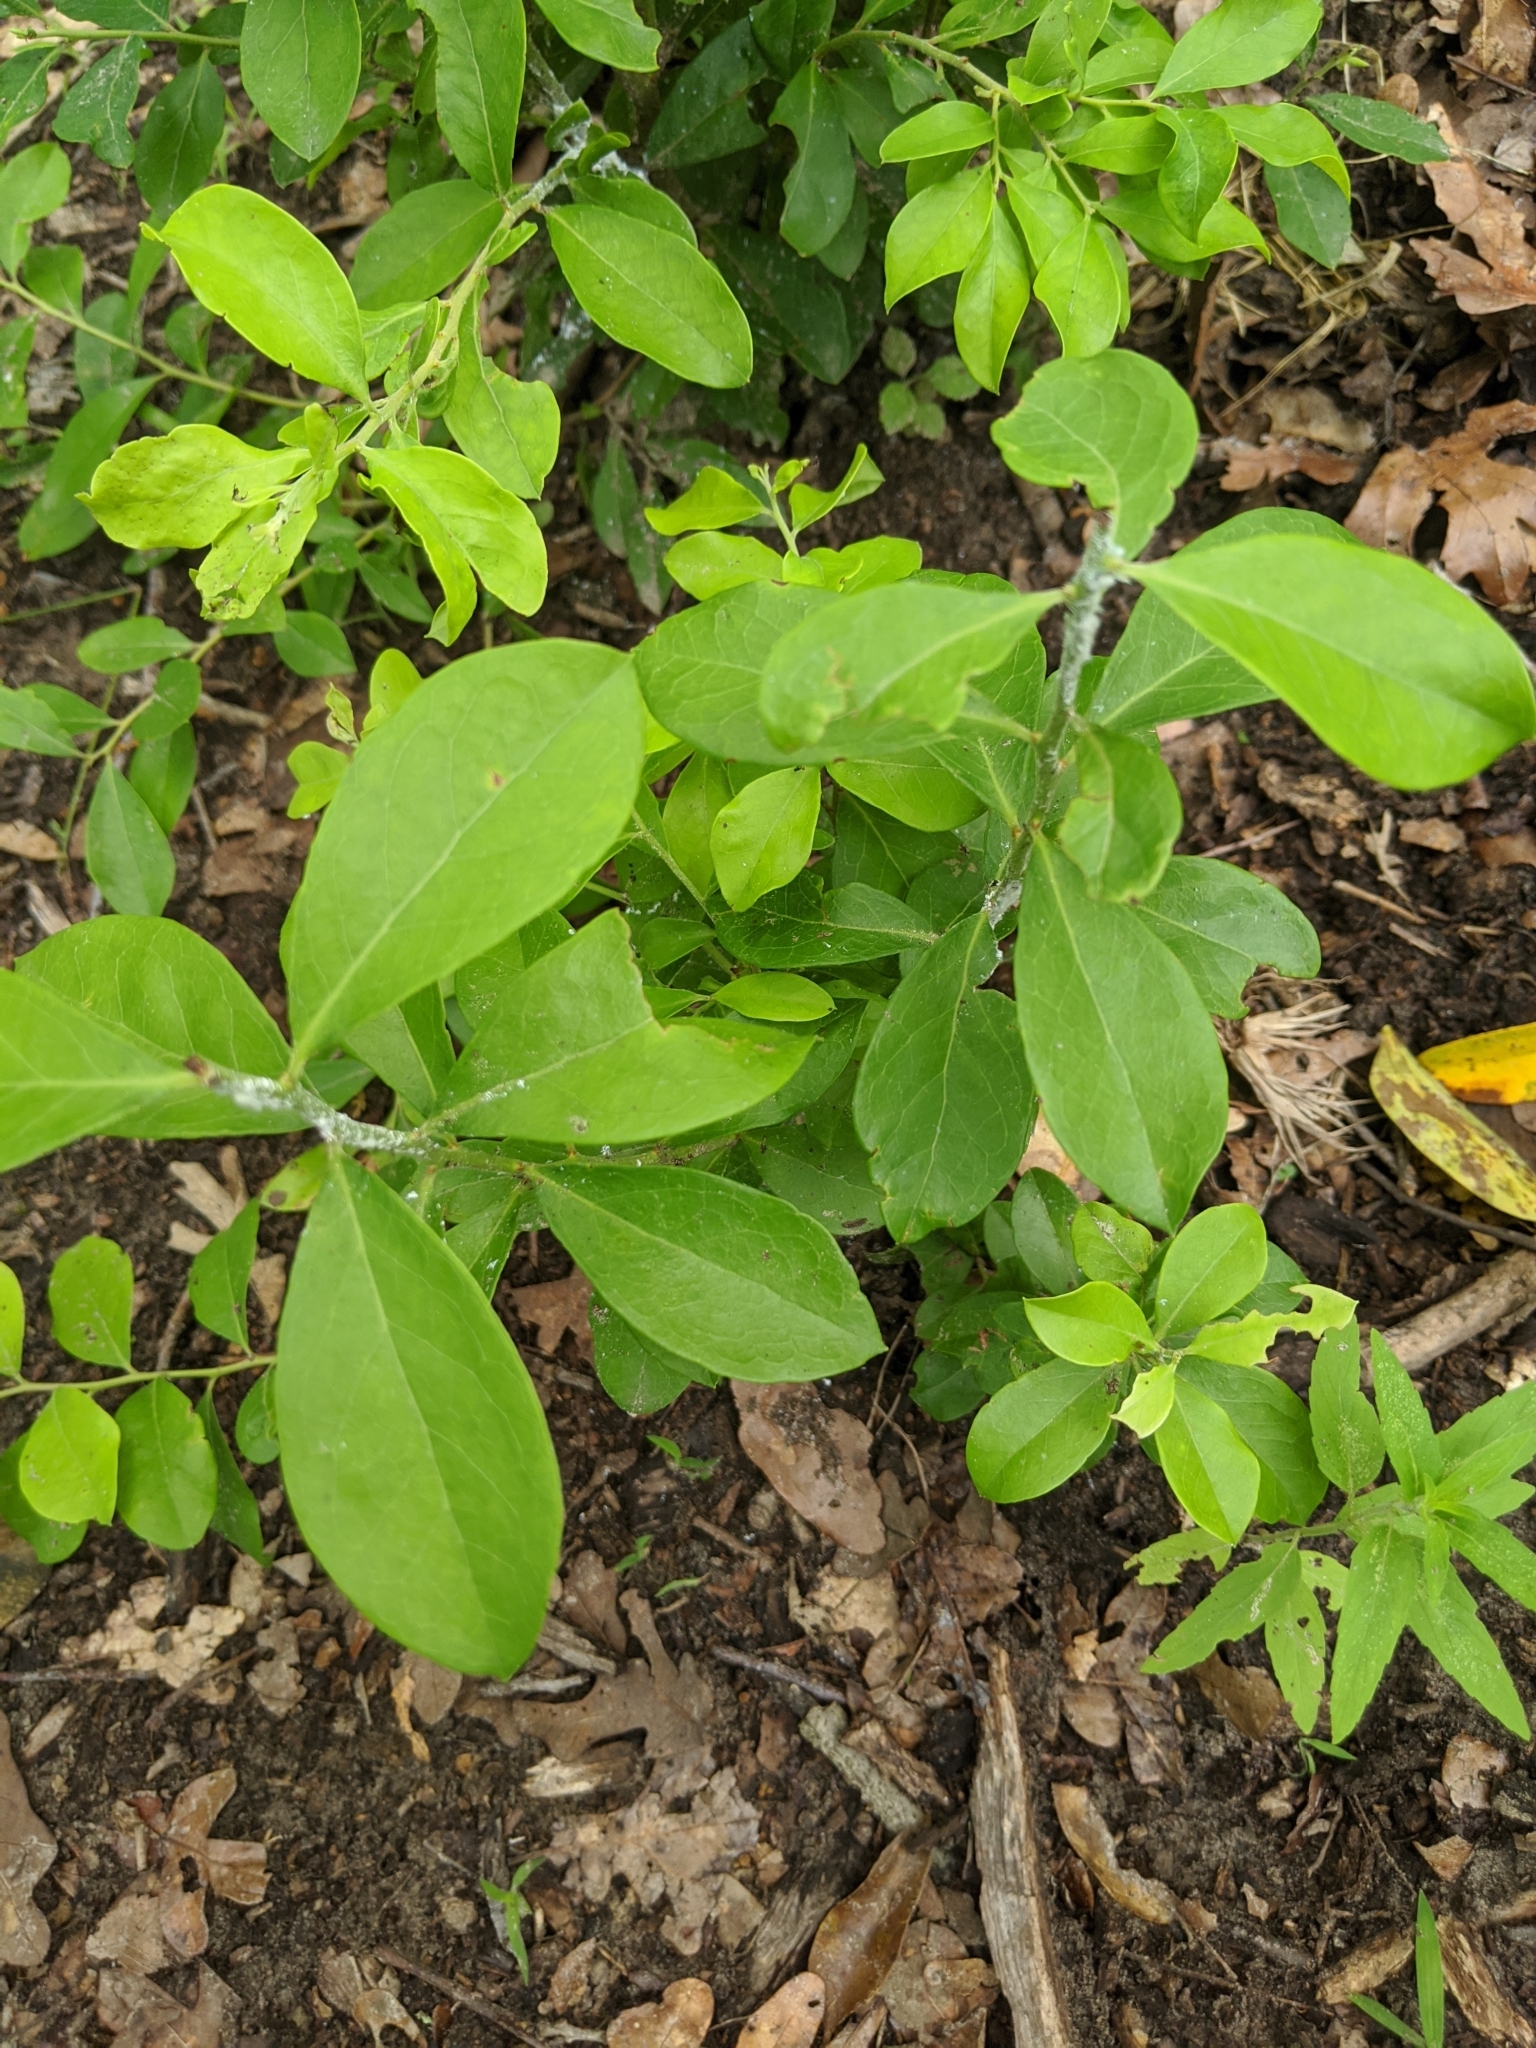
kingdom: Plantae
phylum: Tracheophyta
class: Magnoliopsida
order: Ericales
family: Sapotaceae
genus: Sideroxylon
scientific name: Sideroxylon lanuginosum
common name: Chittamwood
